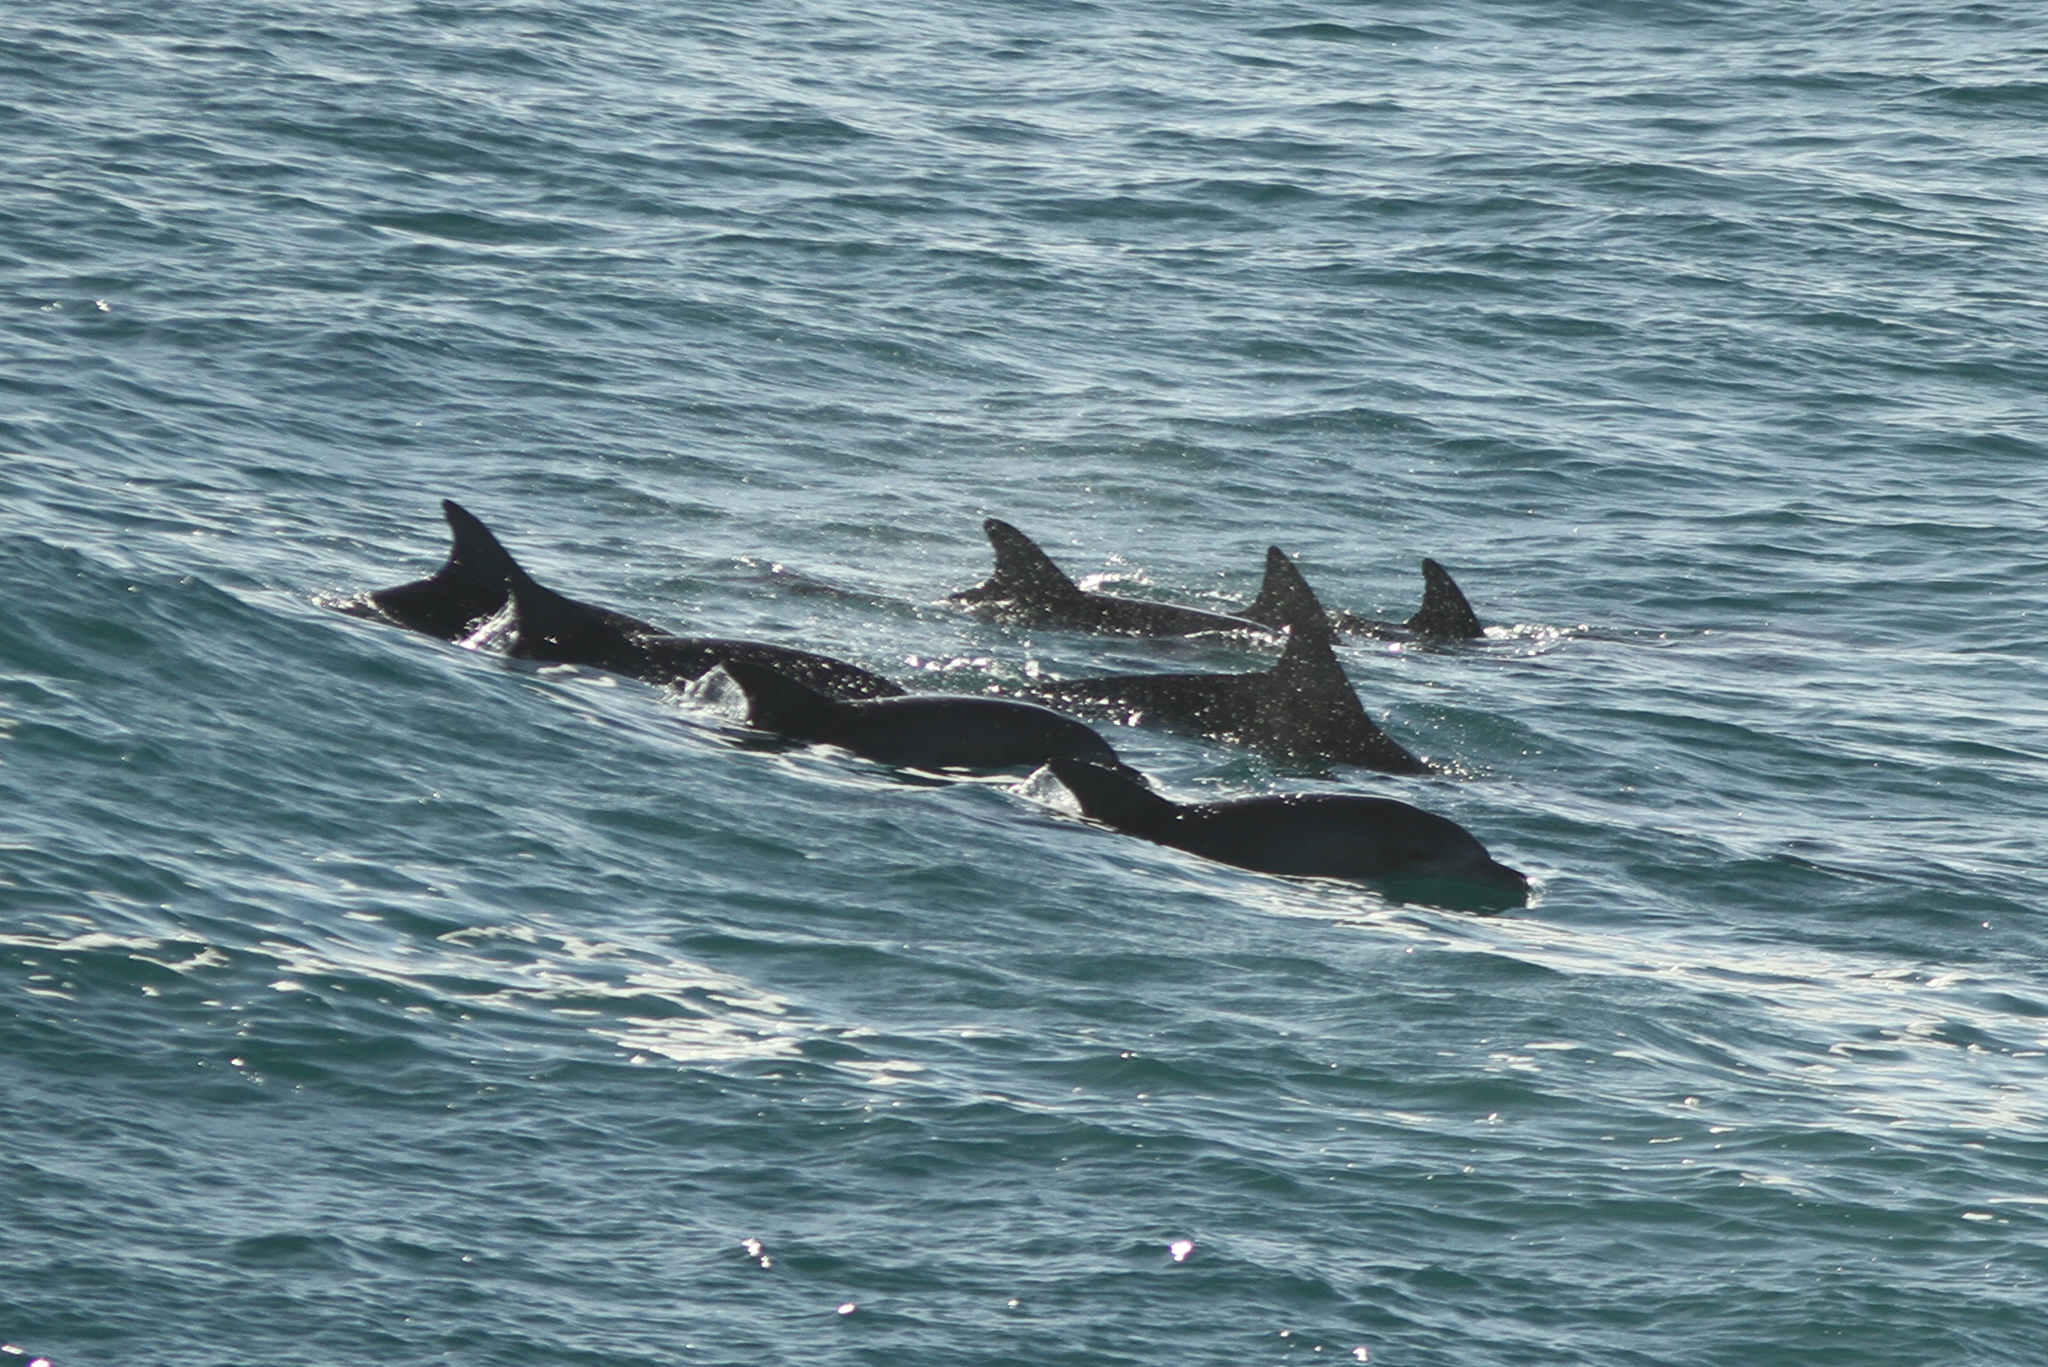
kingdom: Animalia
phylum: Chordata
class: Mammalia
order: Cetacea
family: Delphinidae
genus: Tursiops
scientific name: Tursiops aduncus
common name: Indo-pacific bottlenose dolphin
